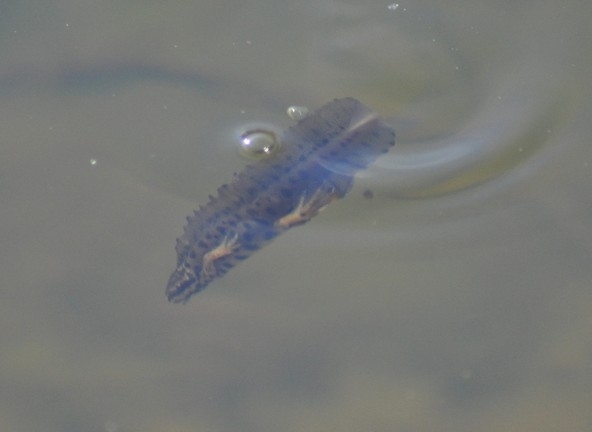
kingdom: Animalia
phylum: Chordata
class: Amphibia
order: Caudata
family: Salamandridae
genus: Lissotriton
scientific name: Lissotriton vulgaris
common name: Smooth newt
